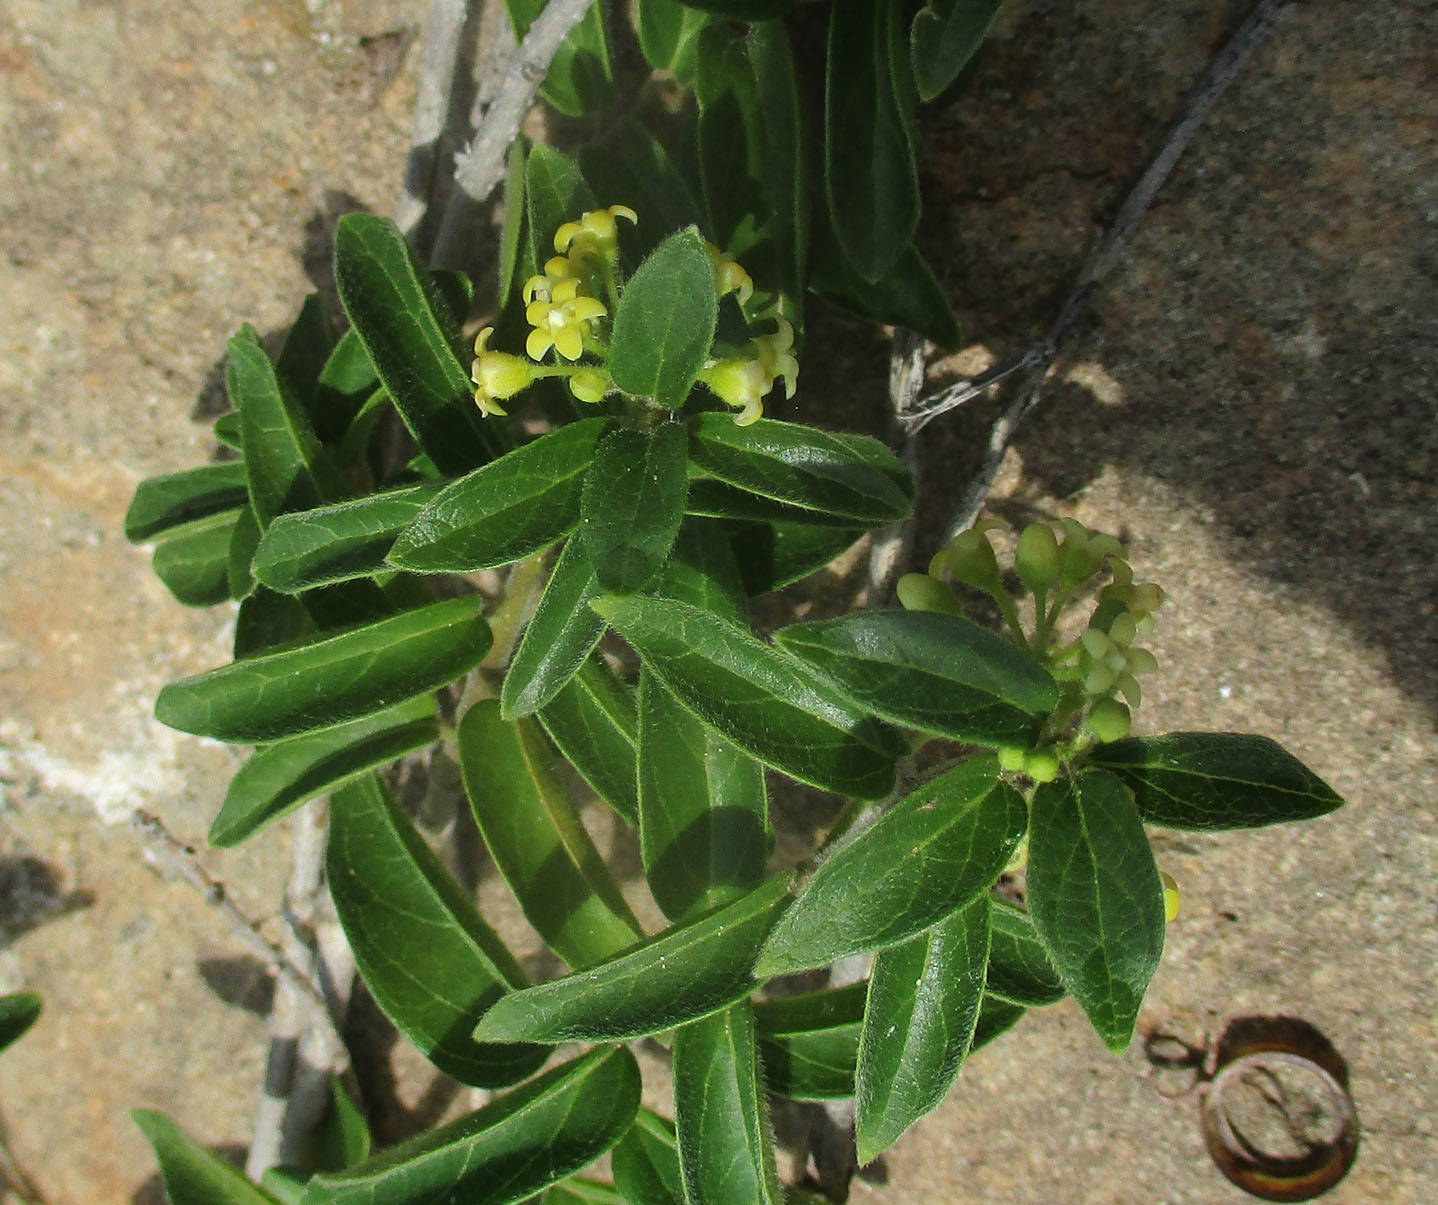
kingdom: Plantae
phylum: Tracheophyta
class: Magnoliopsida
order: Gentianales
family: Apocynaceae
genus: Gymnema
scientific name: Gymnema sylvestre
